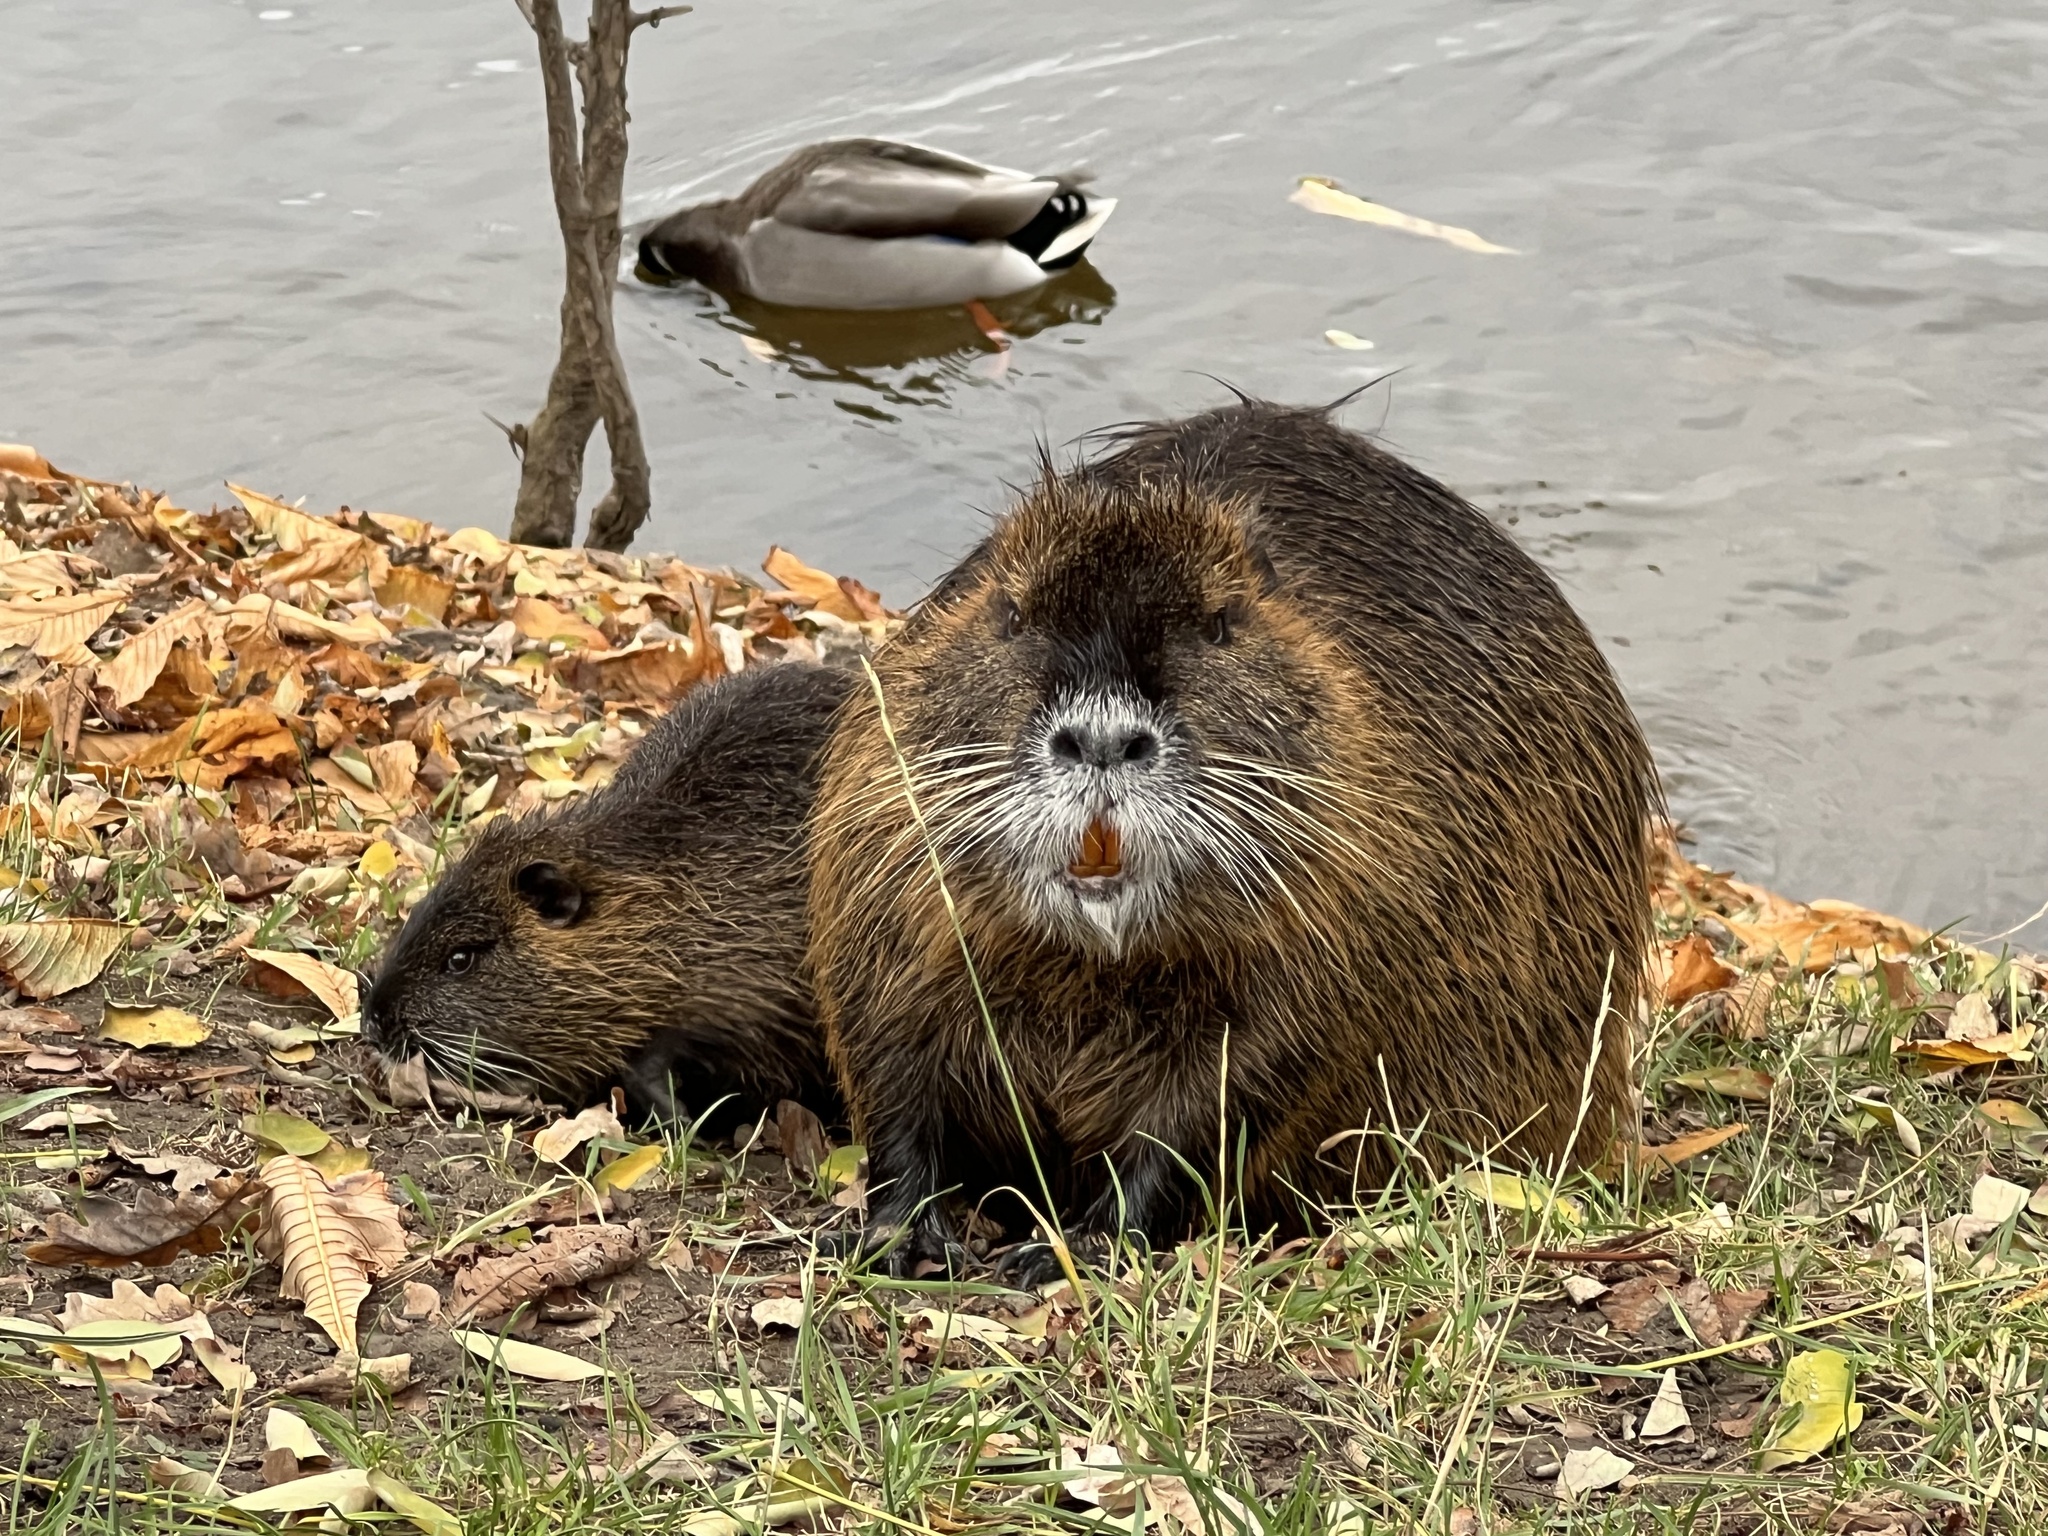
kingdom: Animalia
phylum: Chordata
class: Mammalia
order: Rodentia
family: Myocastoridae
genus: Myocastor
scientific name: Myocastor coypus
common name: Coypu
